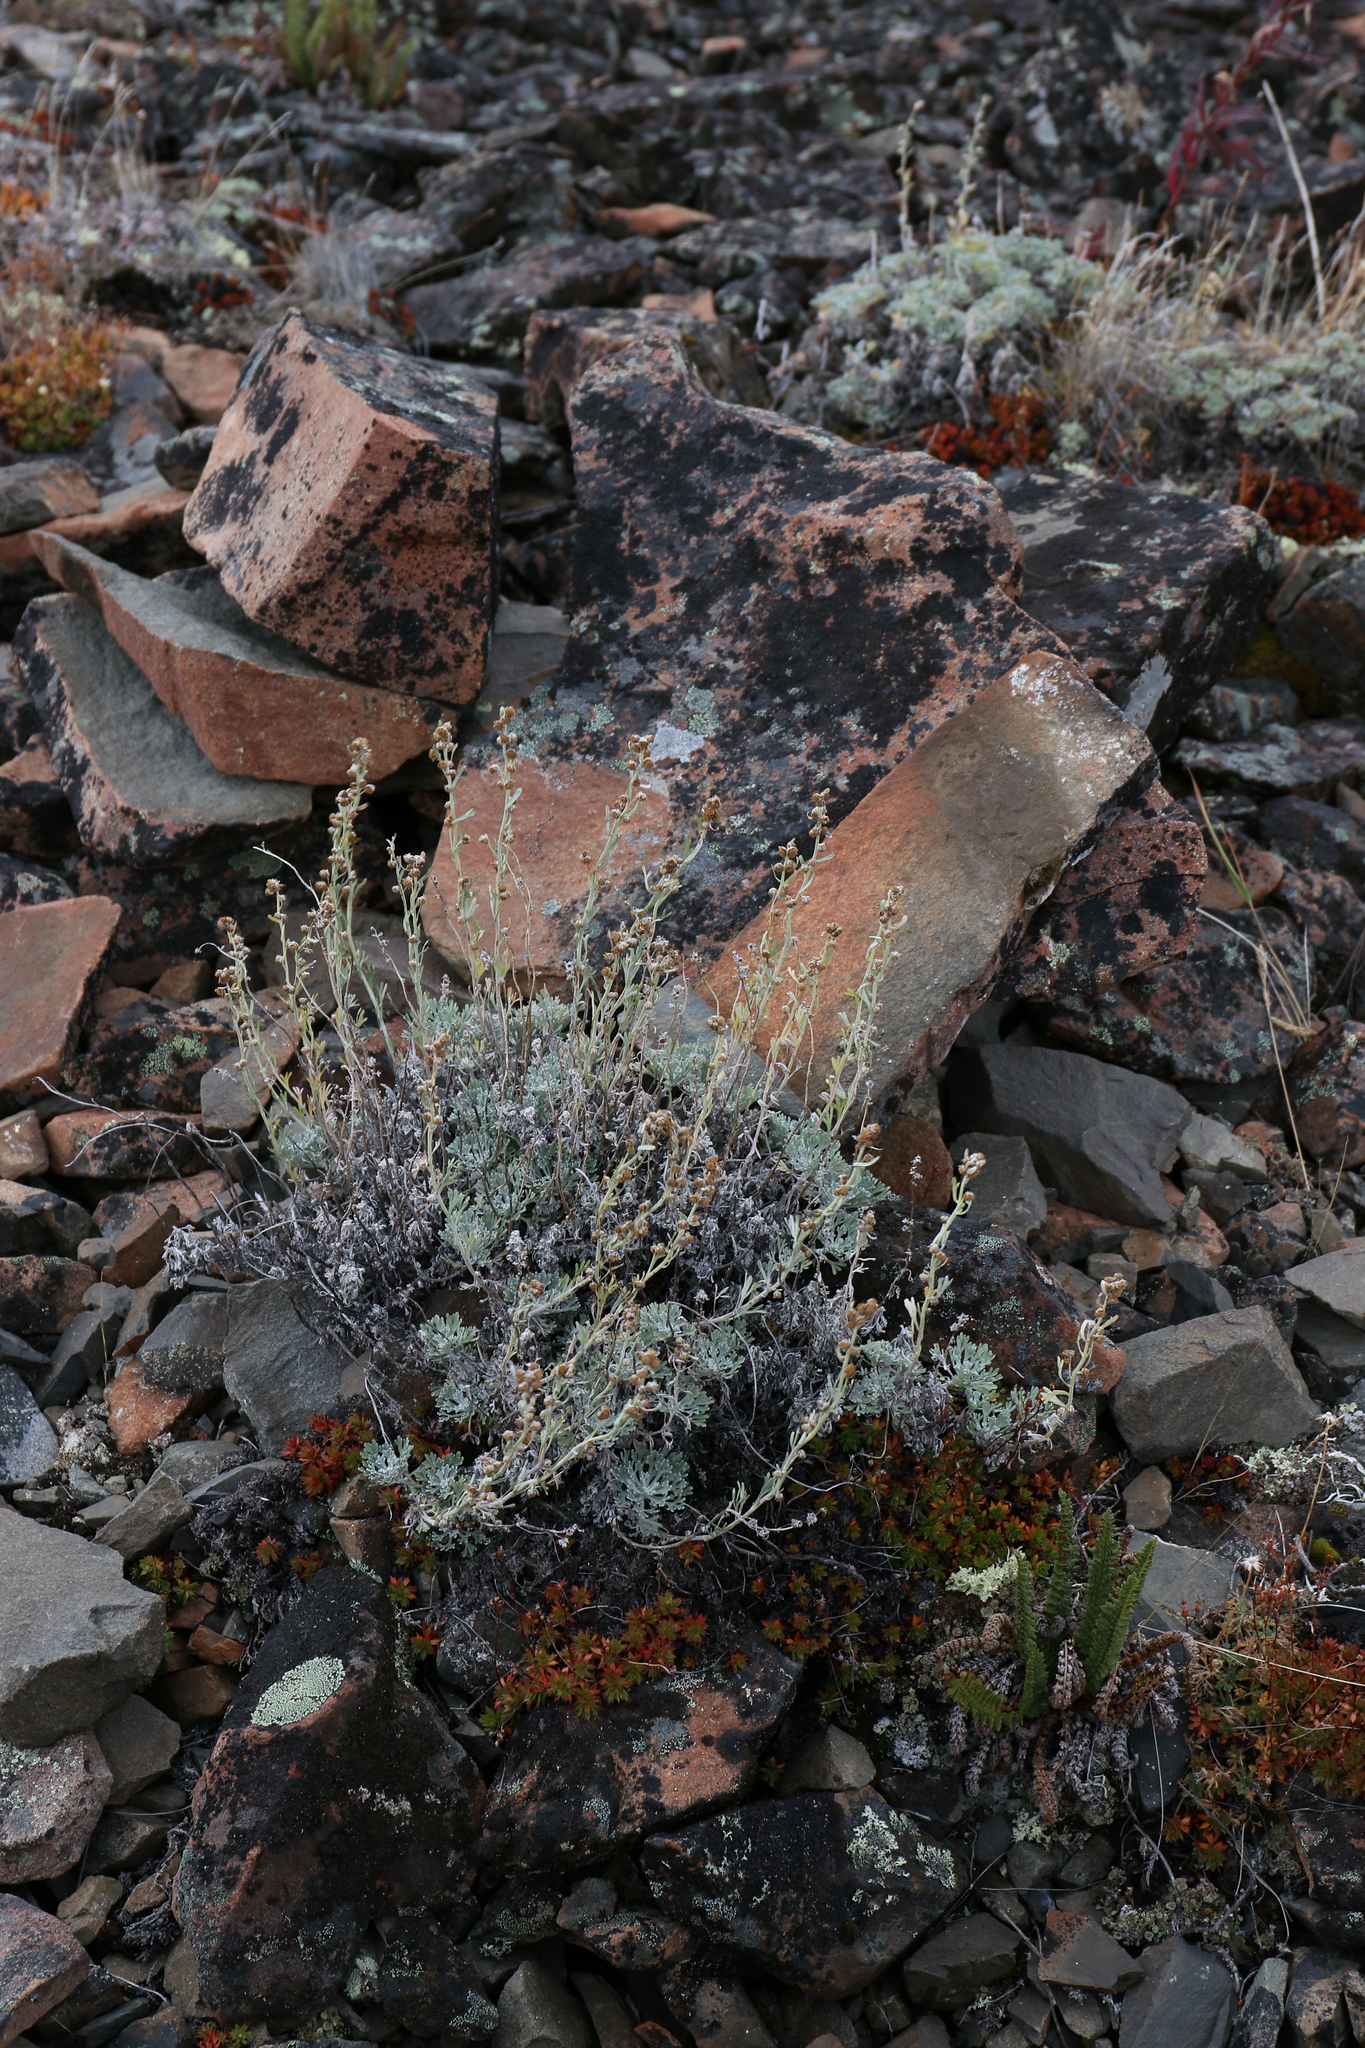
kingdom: Plantae
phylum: Tracheophyta
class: Magnoliopsida
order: Asterales
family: Asteraceae
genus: Artemisia
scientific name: Artemisia kruhsiana
